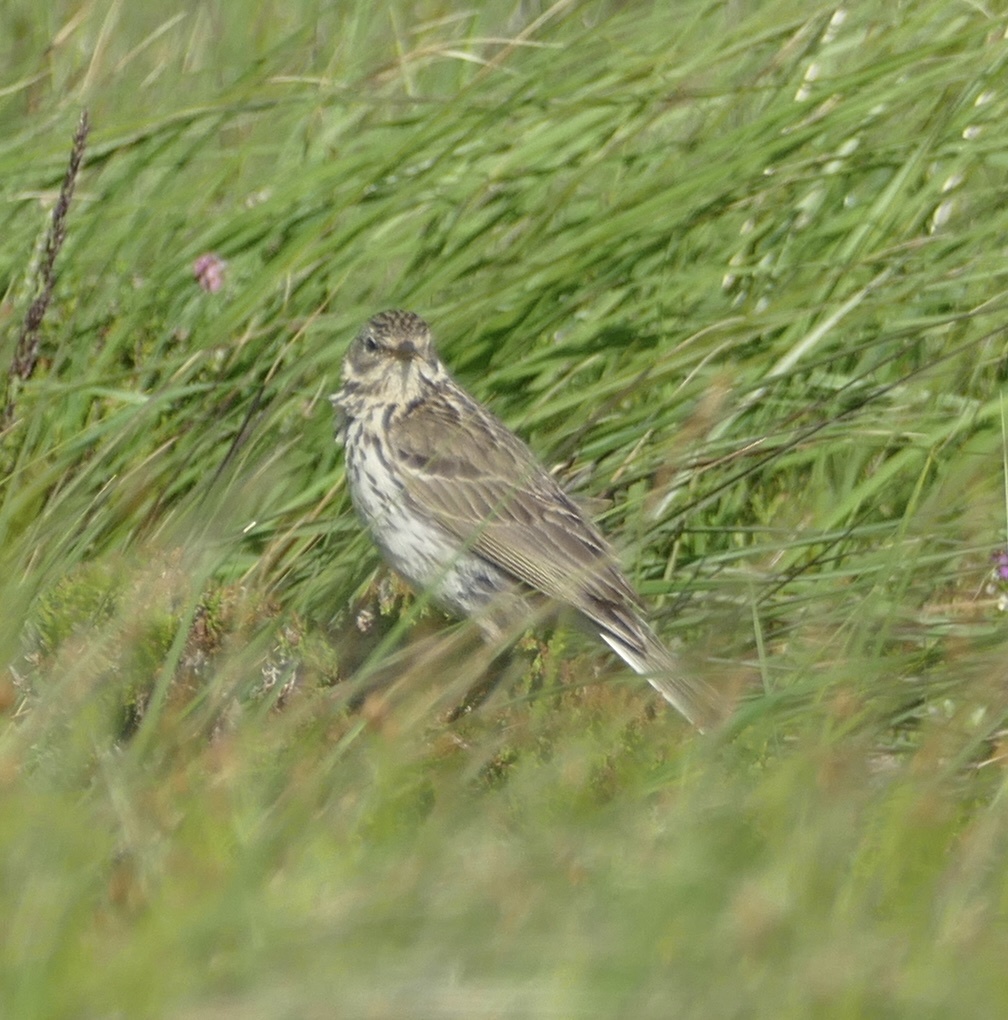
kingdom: Animalia
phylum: Chordata
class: Aves
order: Passeriformes
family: Motacillidae
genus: Anthus
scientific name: Anthus pratensis
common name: Meadow pipit
